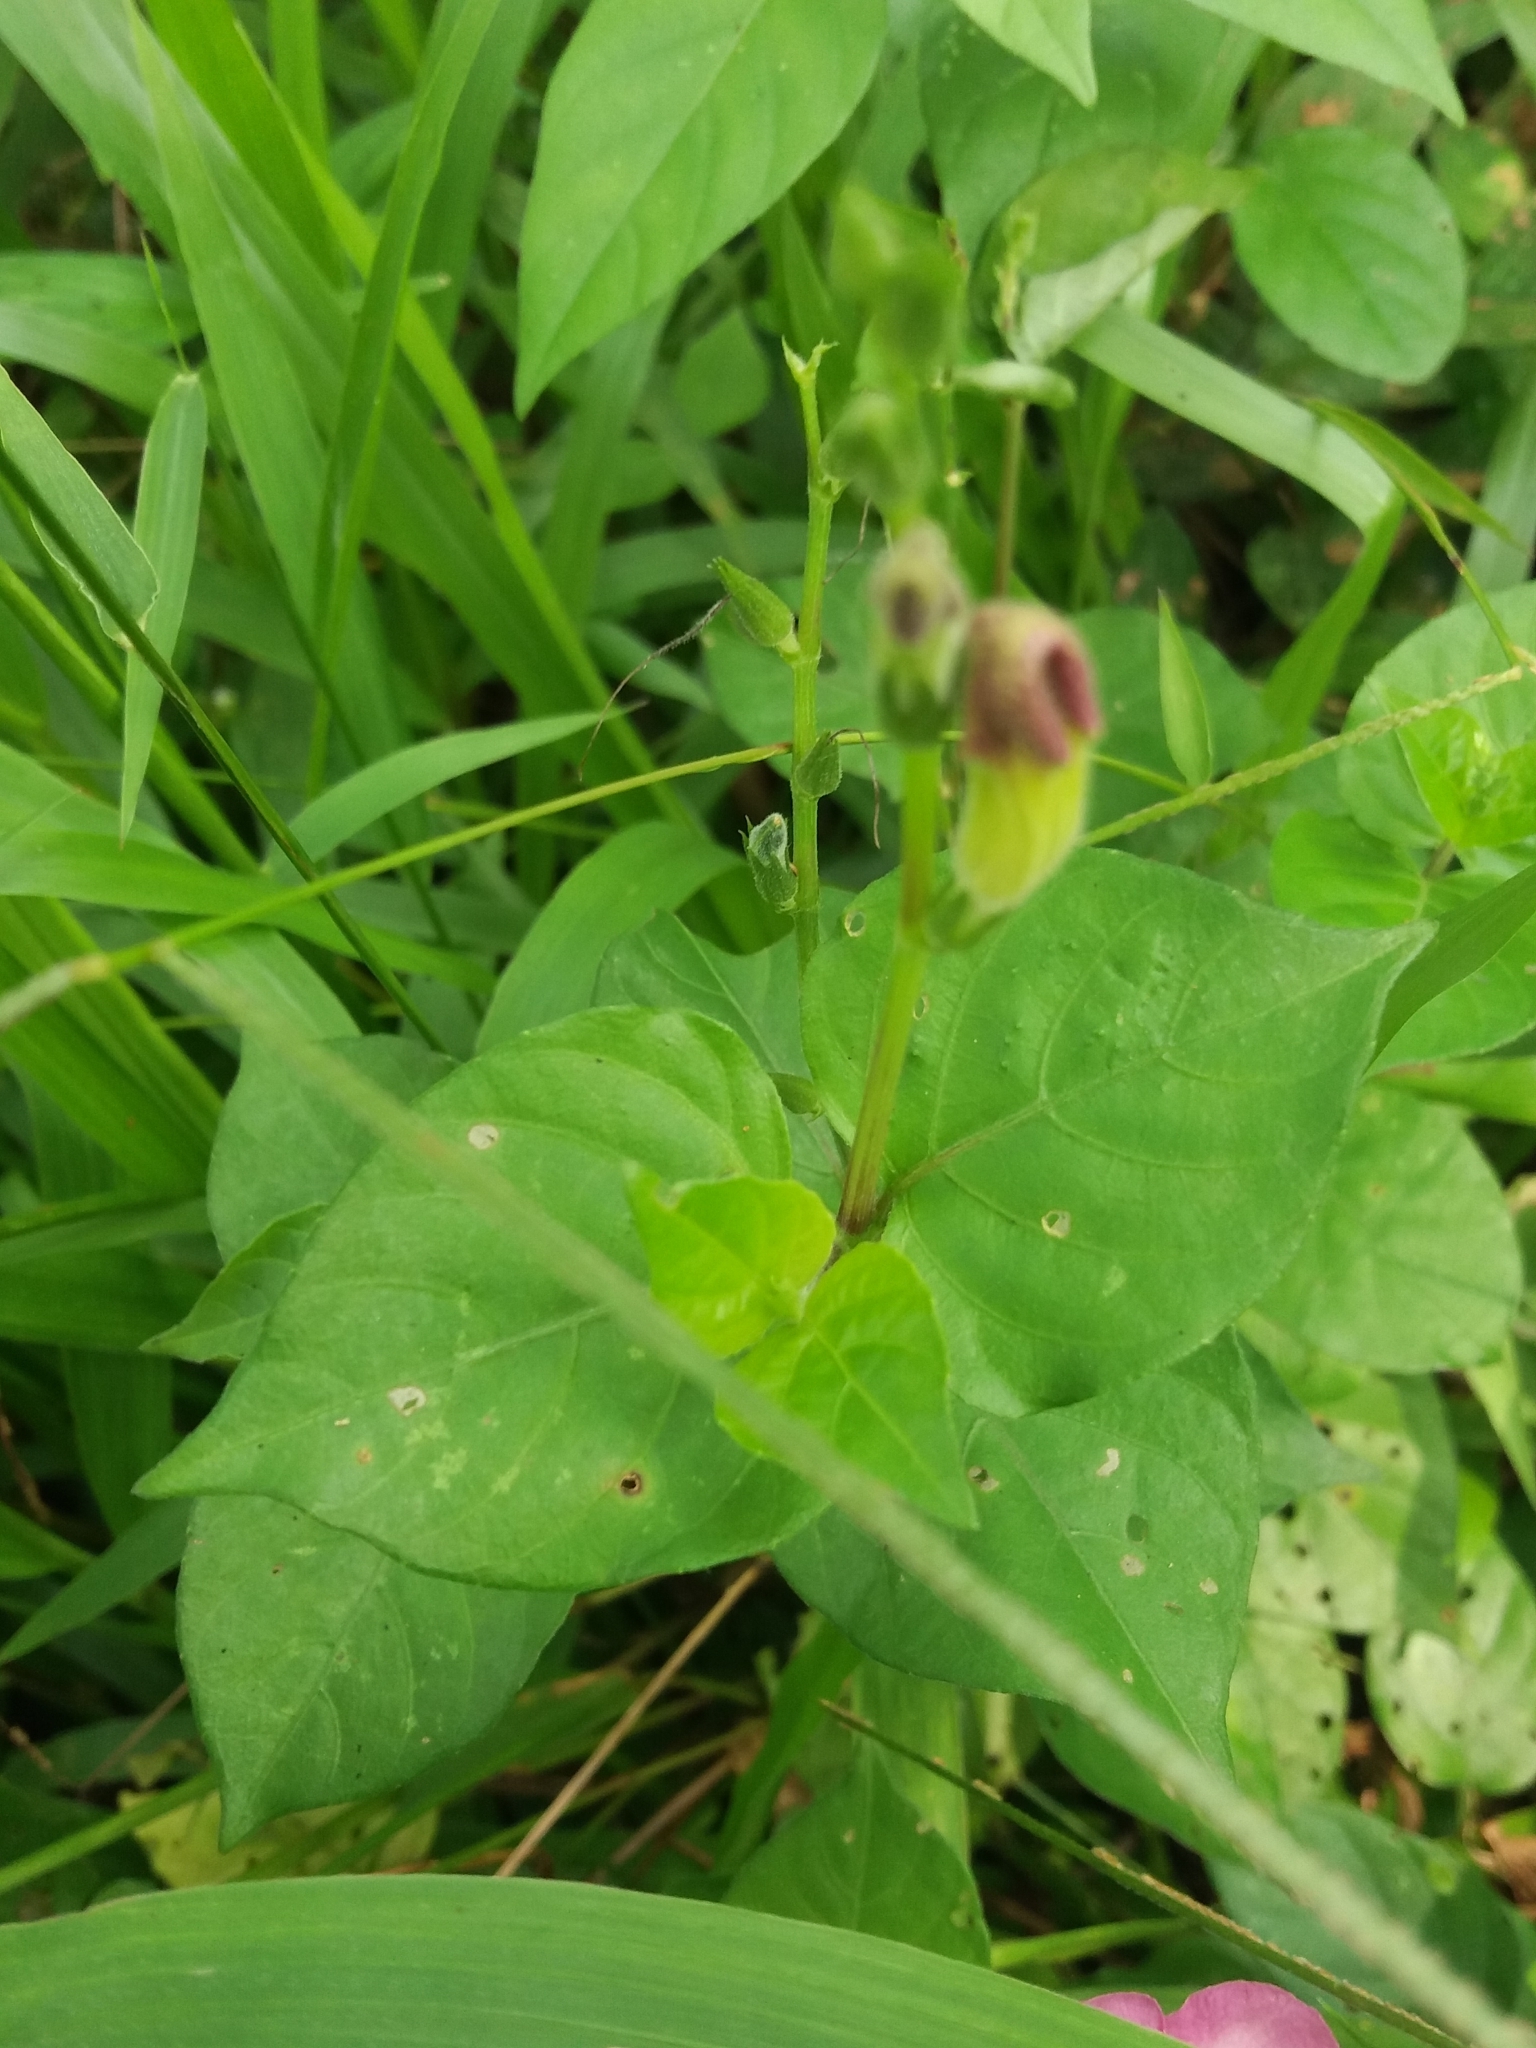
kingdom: Plantae
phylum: Tracheophyta
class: Magnoliopsida
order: Lamiales
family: Acanthaceae
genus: Asystasia
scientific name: Asystasia gangetica
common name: Chinese violet
